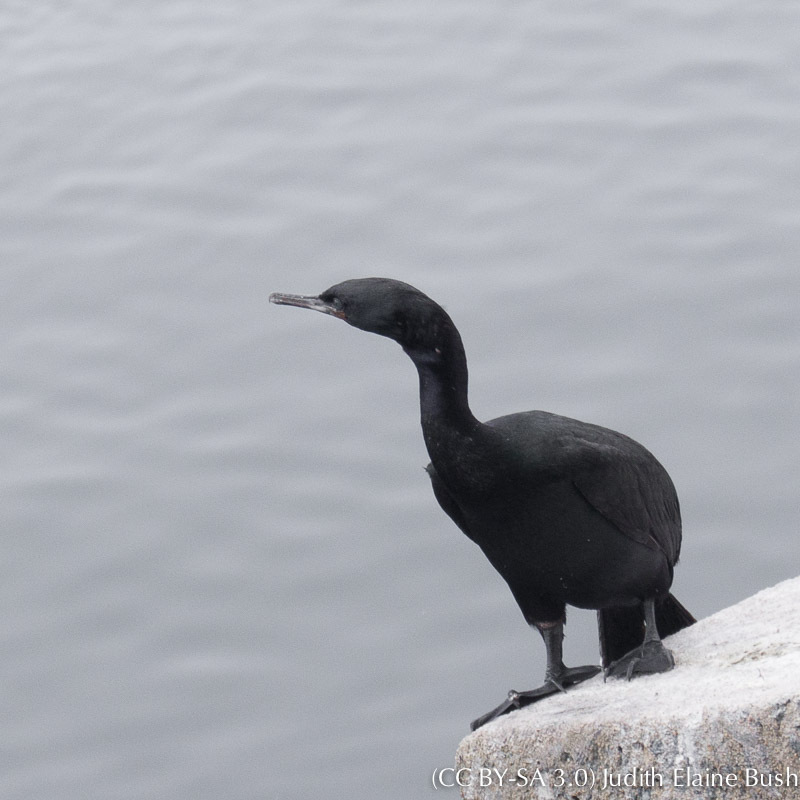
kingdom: Animalia
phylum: Chordata
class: Aves
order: Suliformes
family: Phalacrocoracidae
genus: Urile
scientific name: Urile penicillatus
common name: Brandt's cormorant
